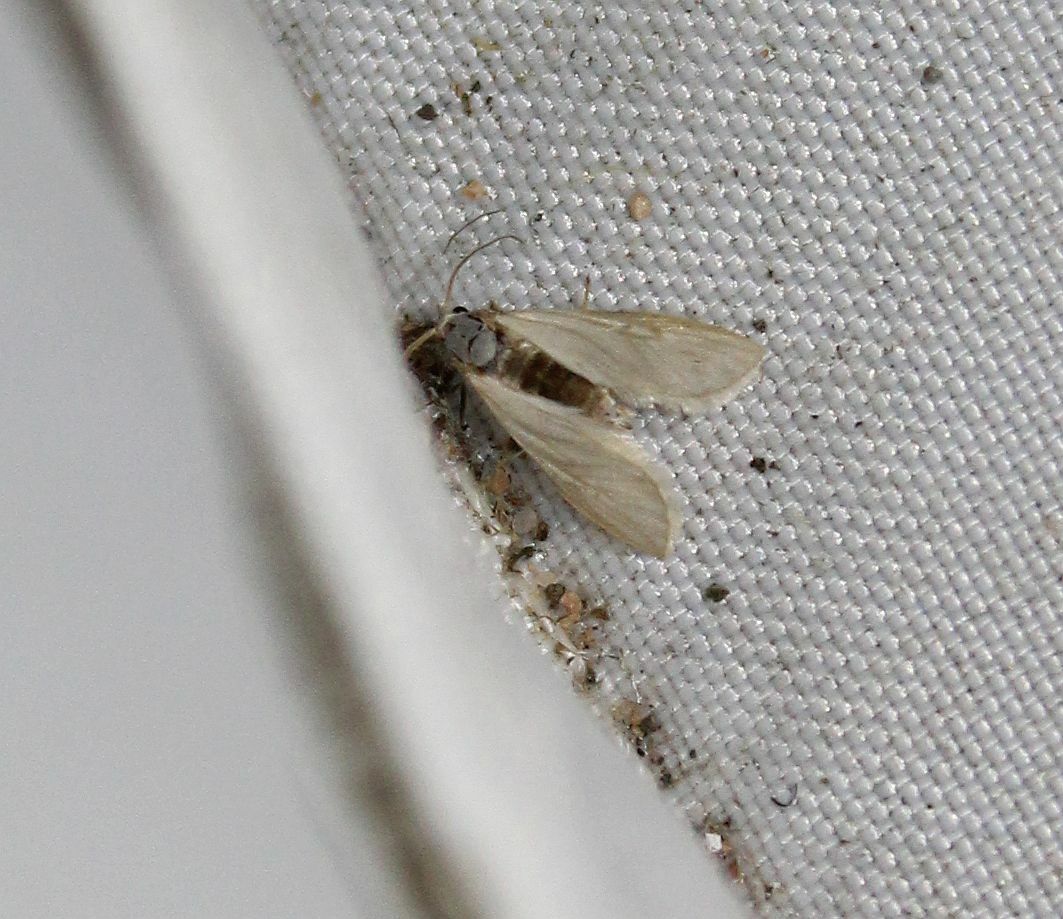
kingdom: Animalia
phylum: Arthropoda
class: Insecta
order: Lepidoptera
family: Crambidae
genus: Acentria
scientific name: Acentria ephemerella
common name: European water moth
